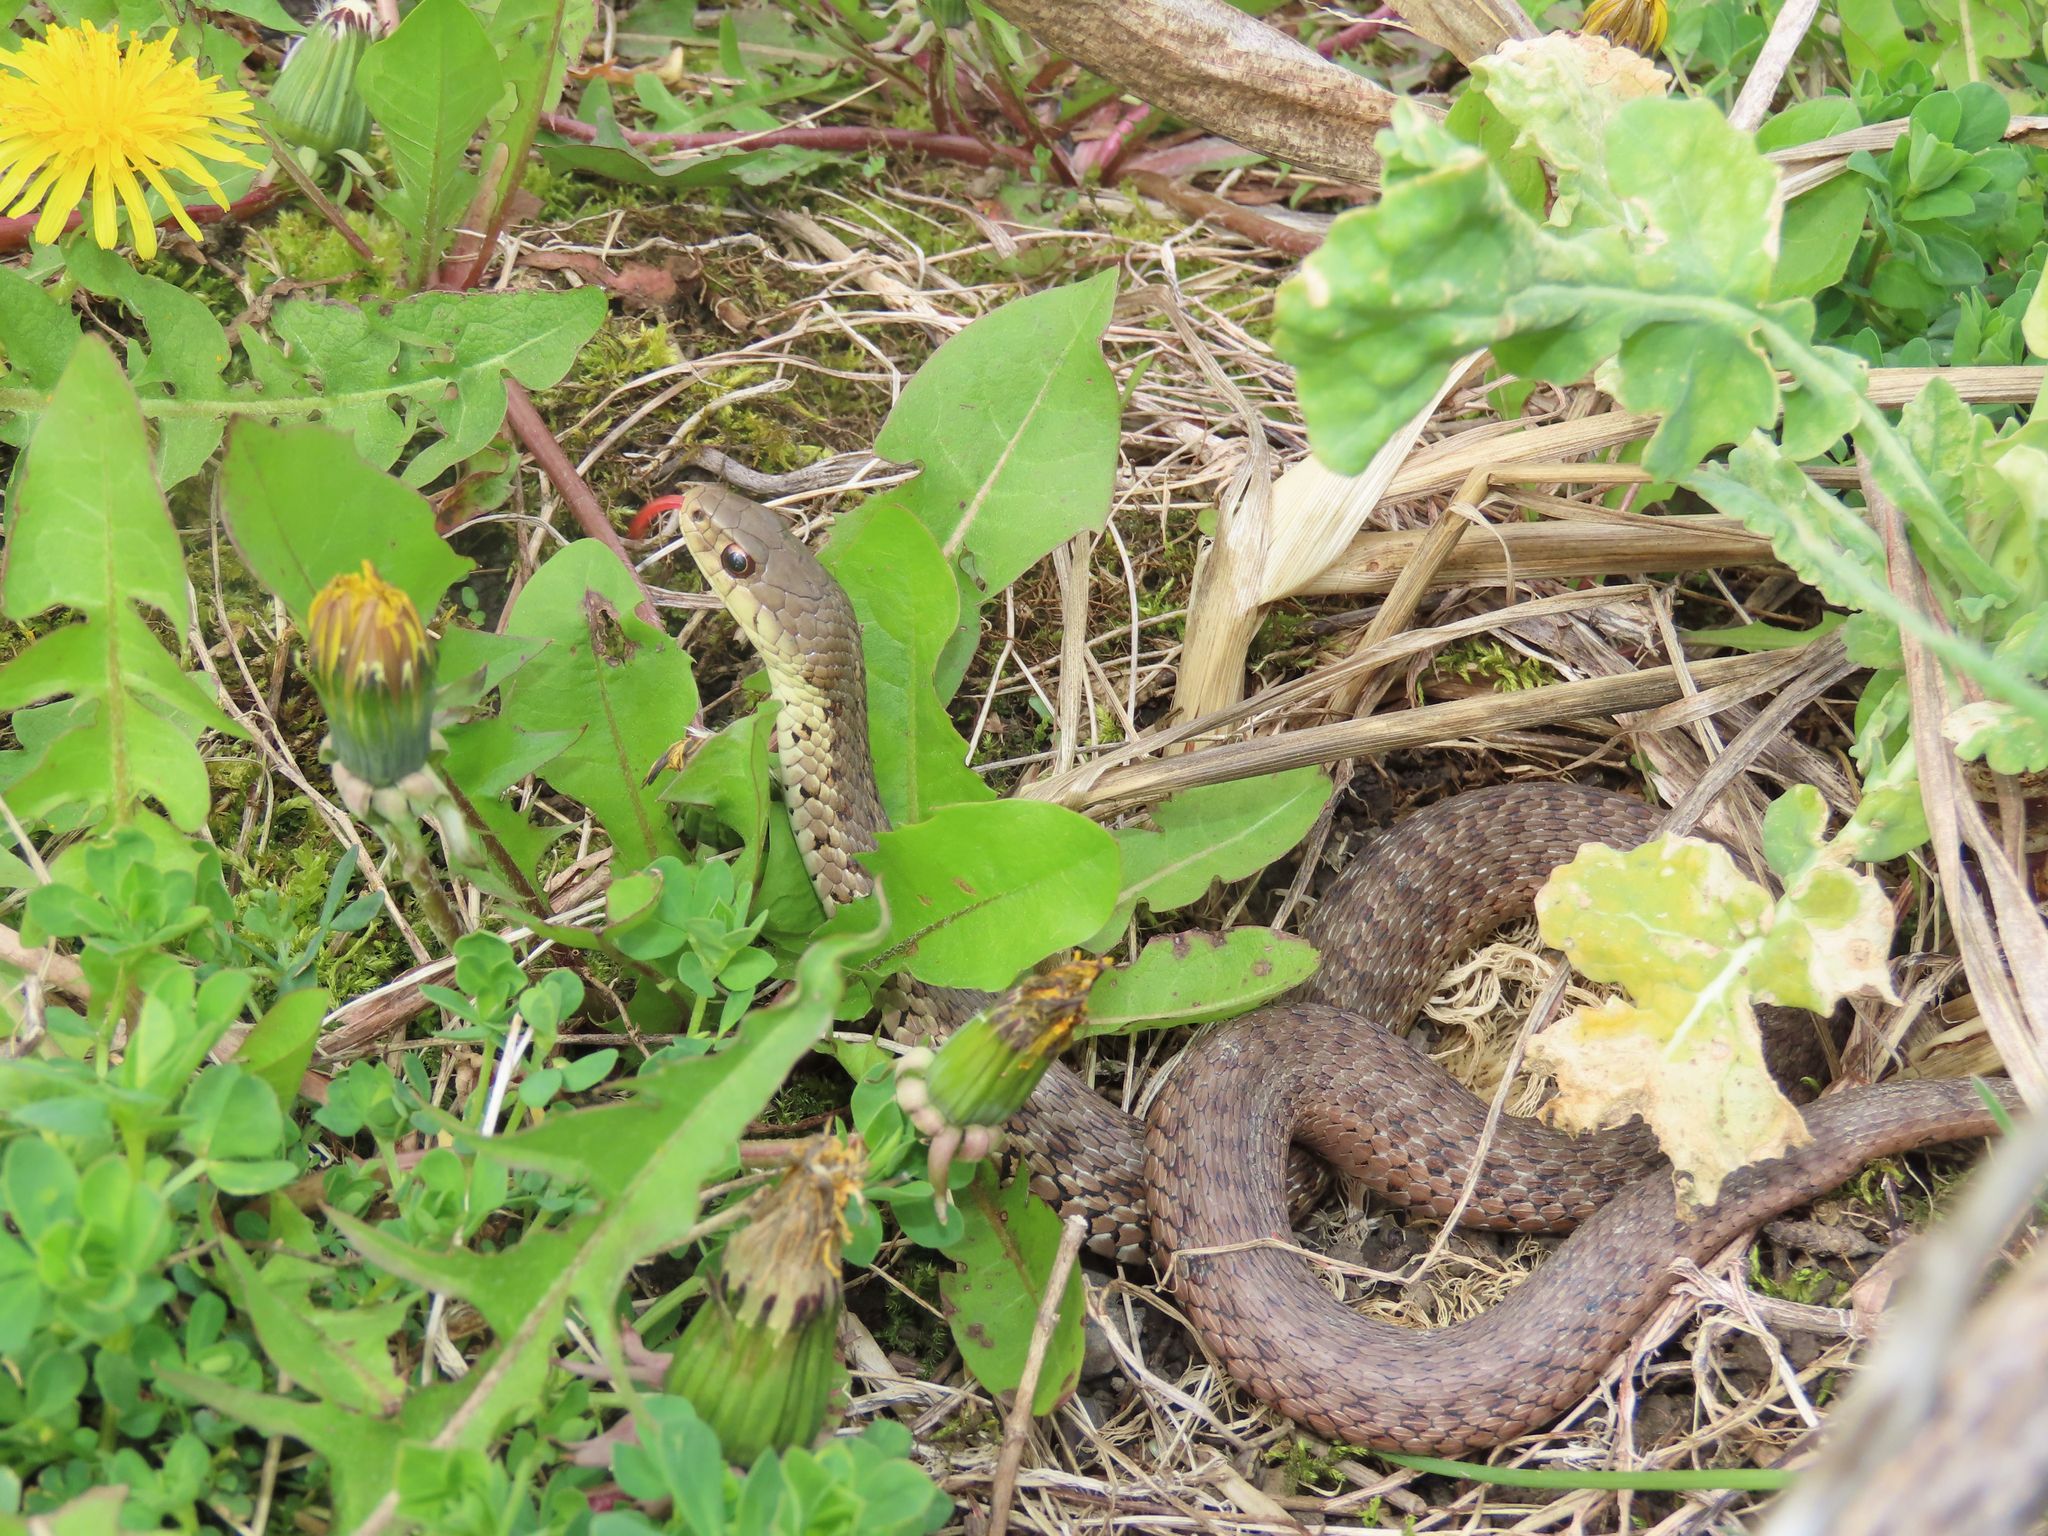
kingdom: Animalia
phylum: Chordata
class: Squamata
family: Colubridae
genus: Thamnophis
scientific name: Thamnophis sirtalis
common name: Common garter snake
